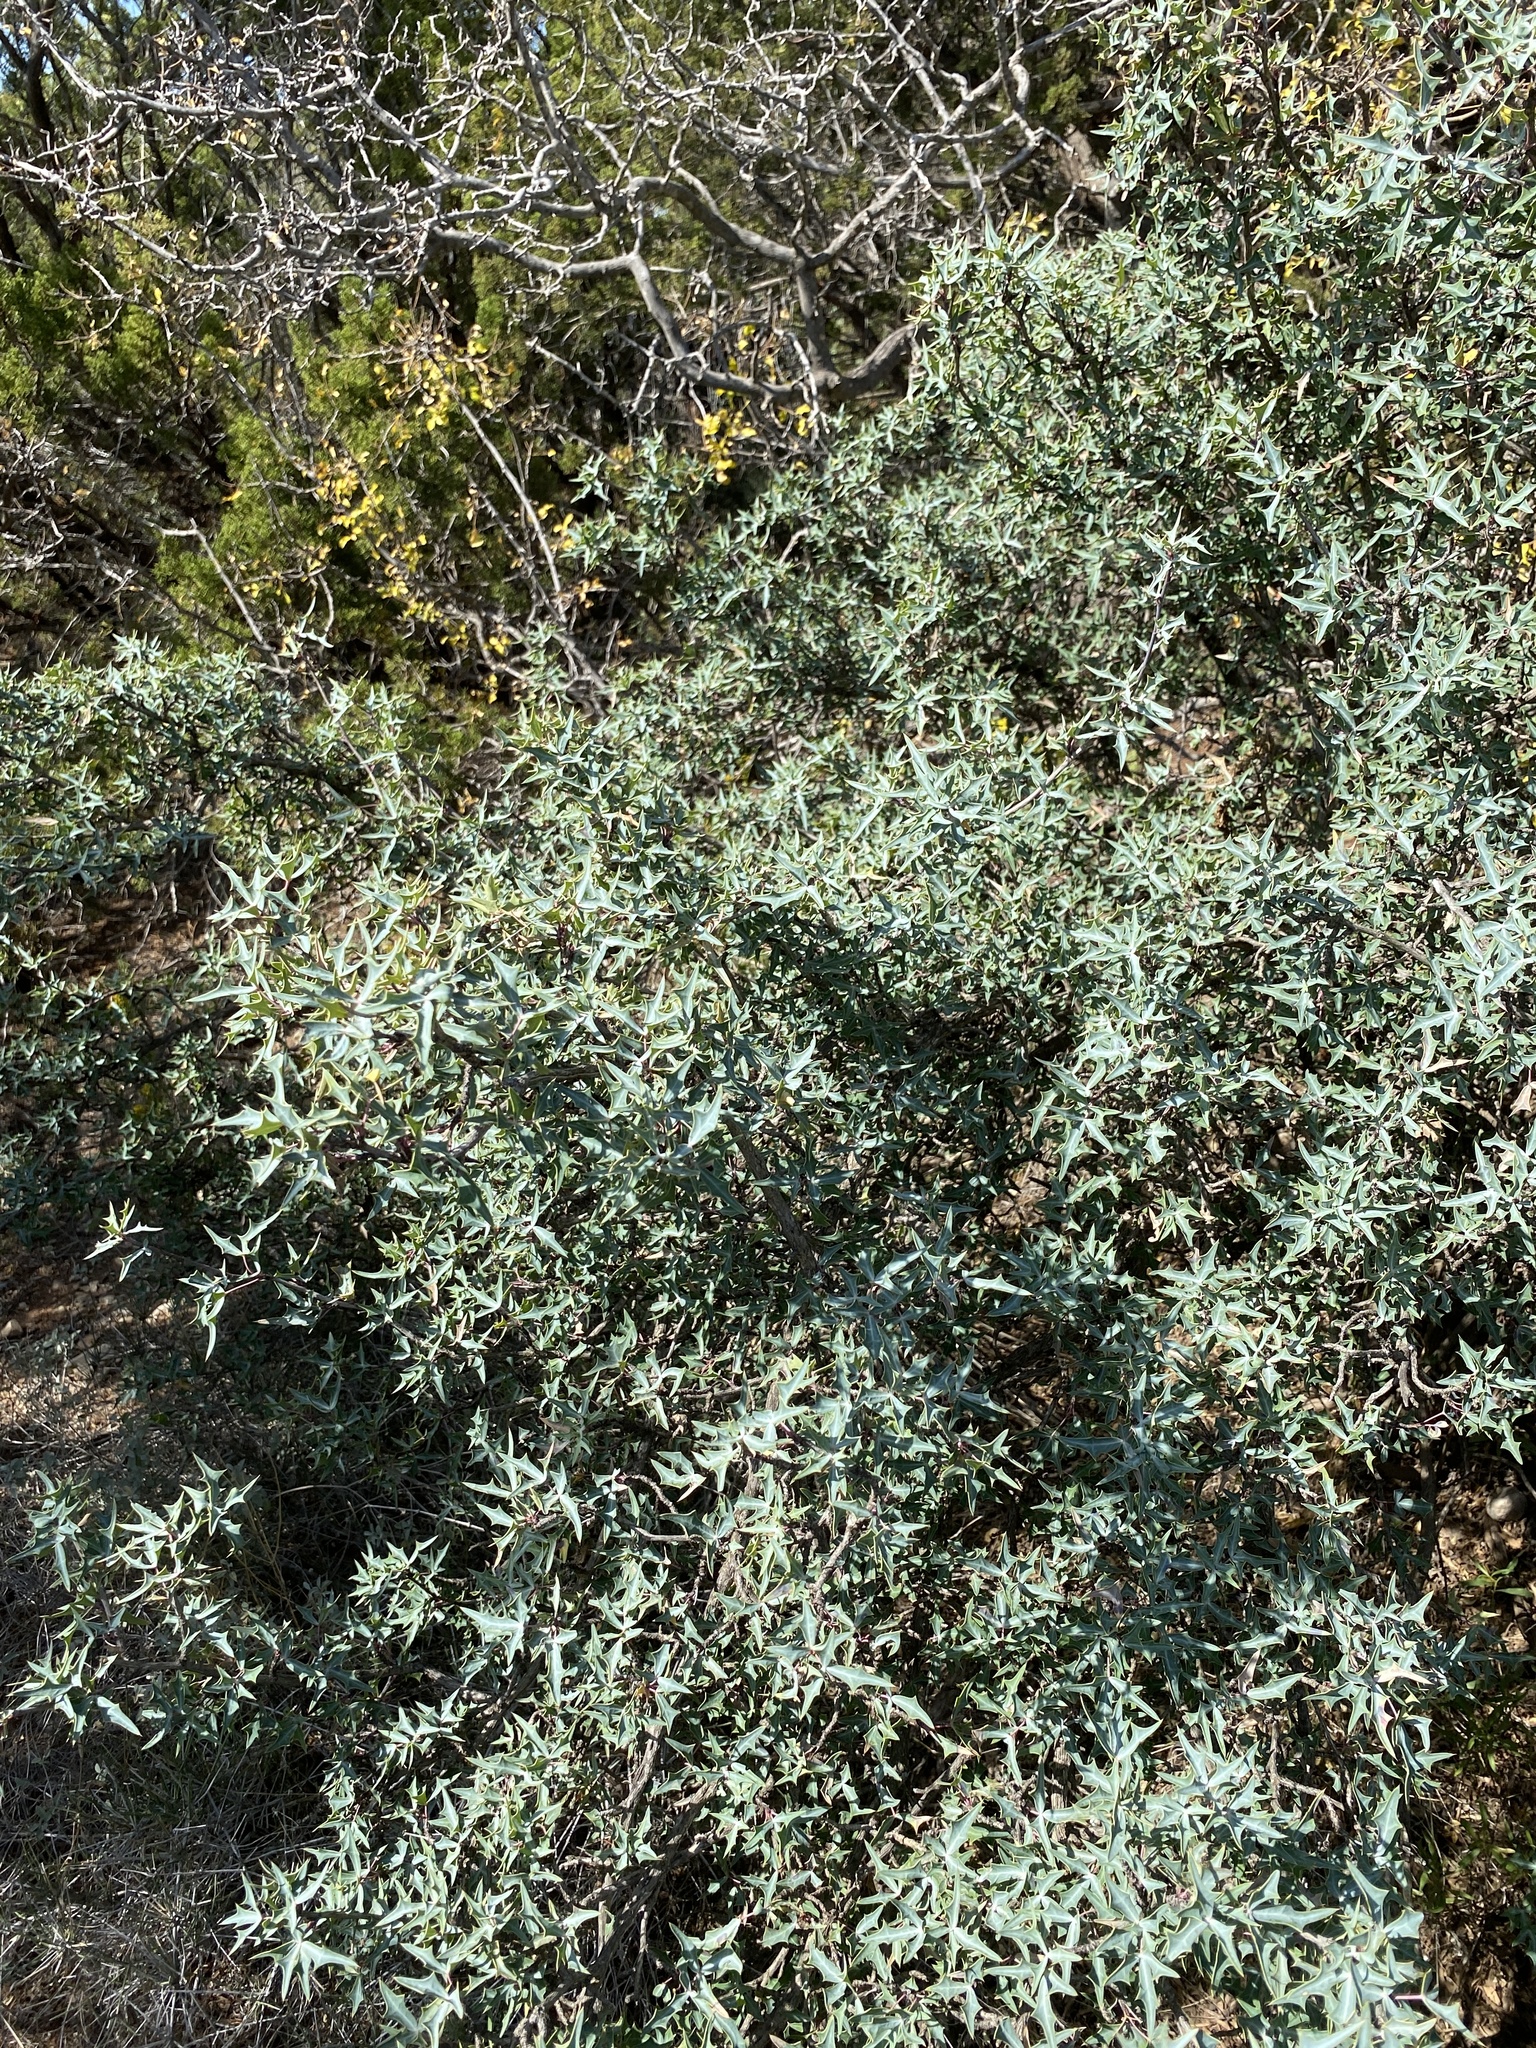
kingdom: Plantae
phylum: Tracheophyta
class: Magnoliopsida
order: Ranunculales
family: Berberidaceae
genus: Alloberberis
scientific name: Alloberberis trifoliolata
